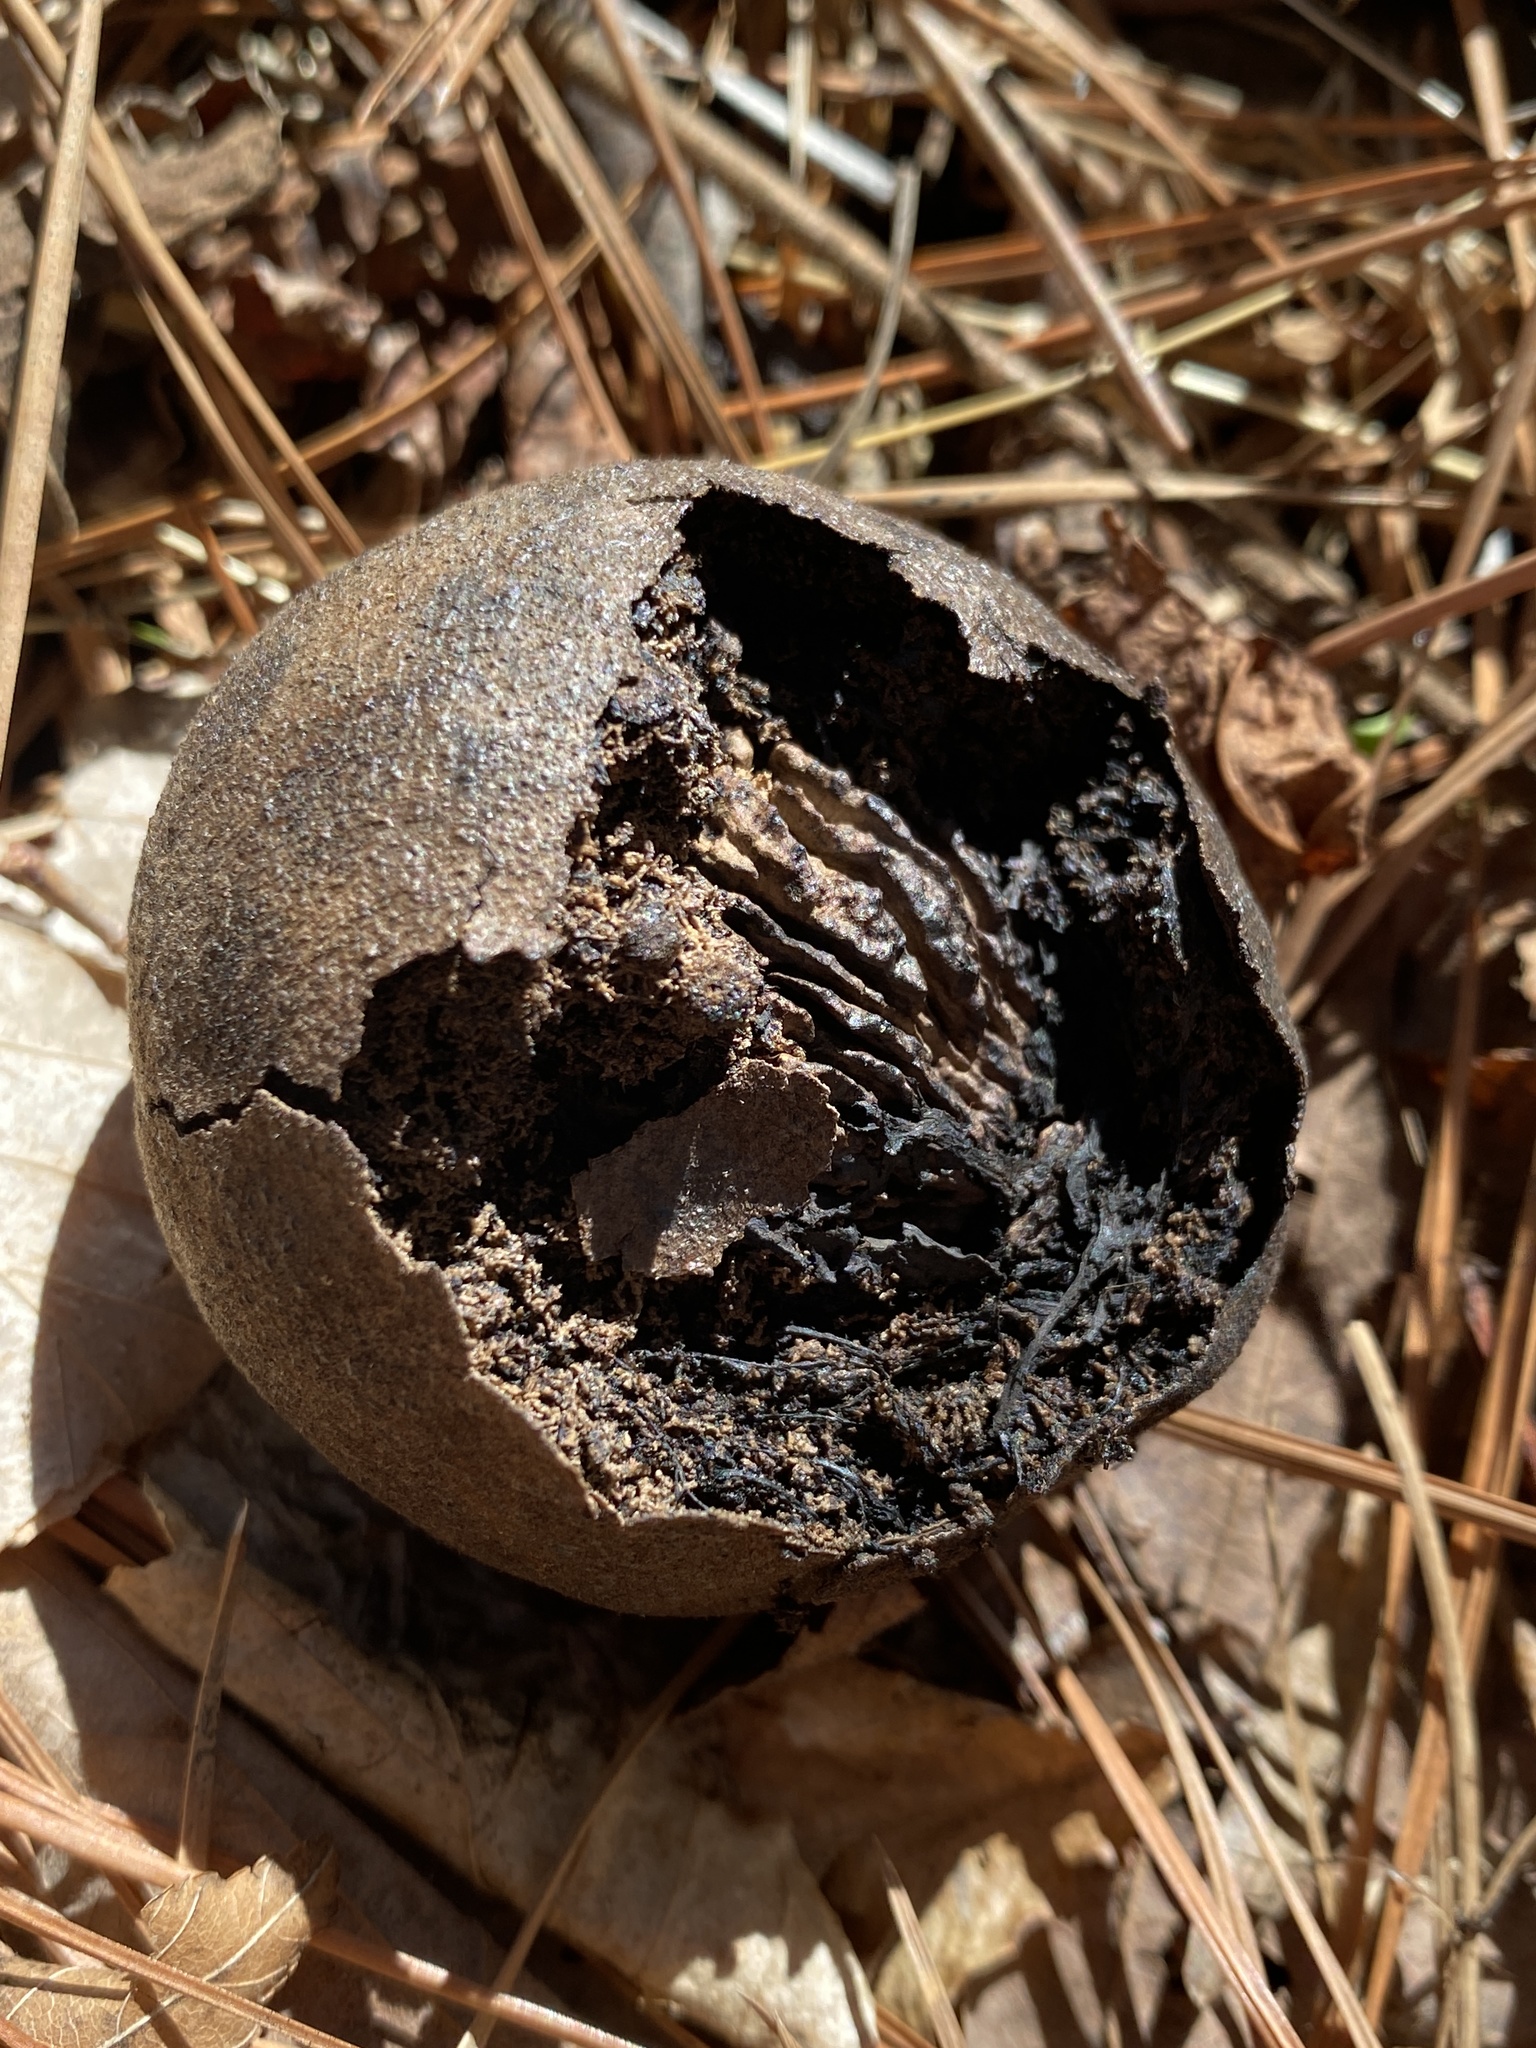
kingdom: Plantae
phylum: Tracheophyta
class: Magnoliopsida
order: Fagales
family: Juglandaceae
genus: Juglans
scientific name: Juglans nigra
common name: Black walnut
